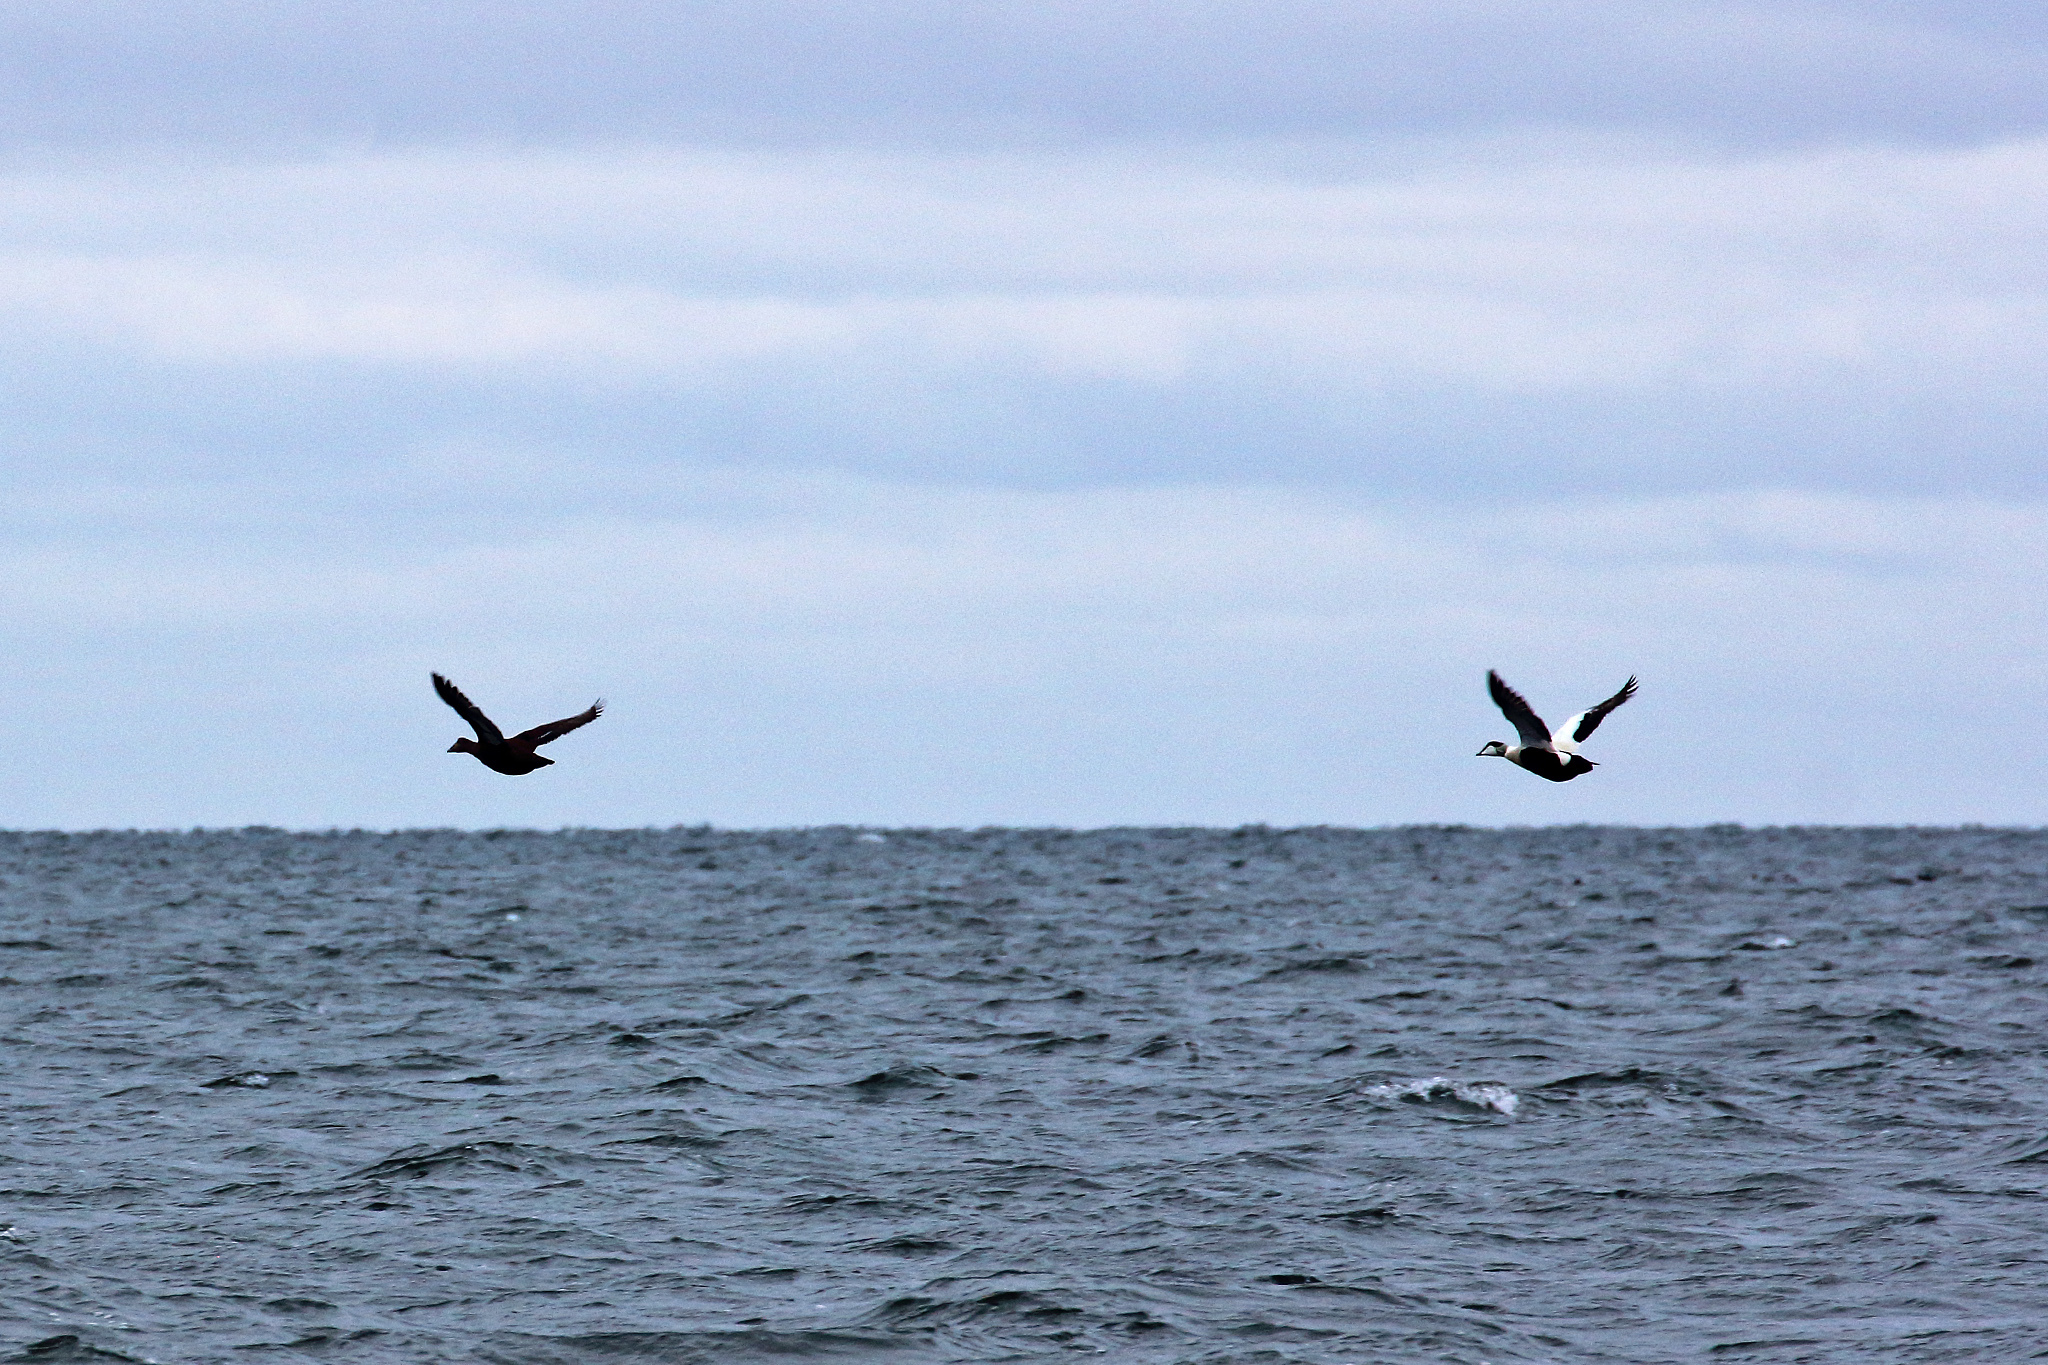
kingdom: Animalia
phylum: Chordata
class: Aves
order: Anseriformes
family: Anatidae
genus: Somateria
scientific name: Somateria mollissima
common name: Common eider
